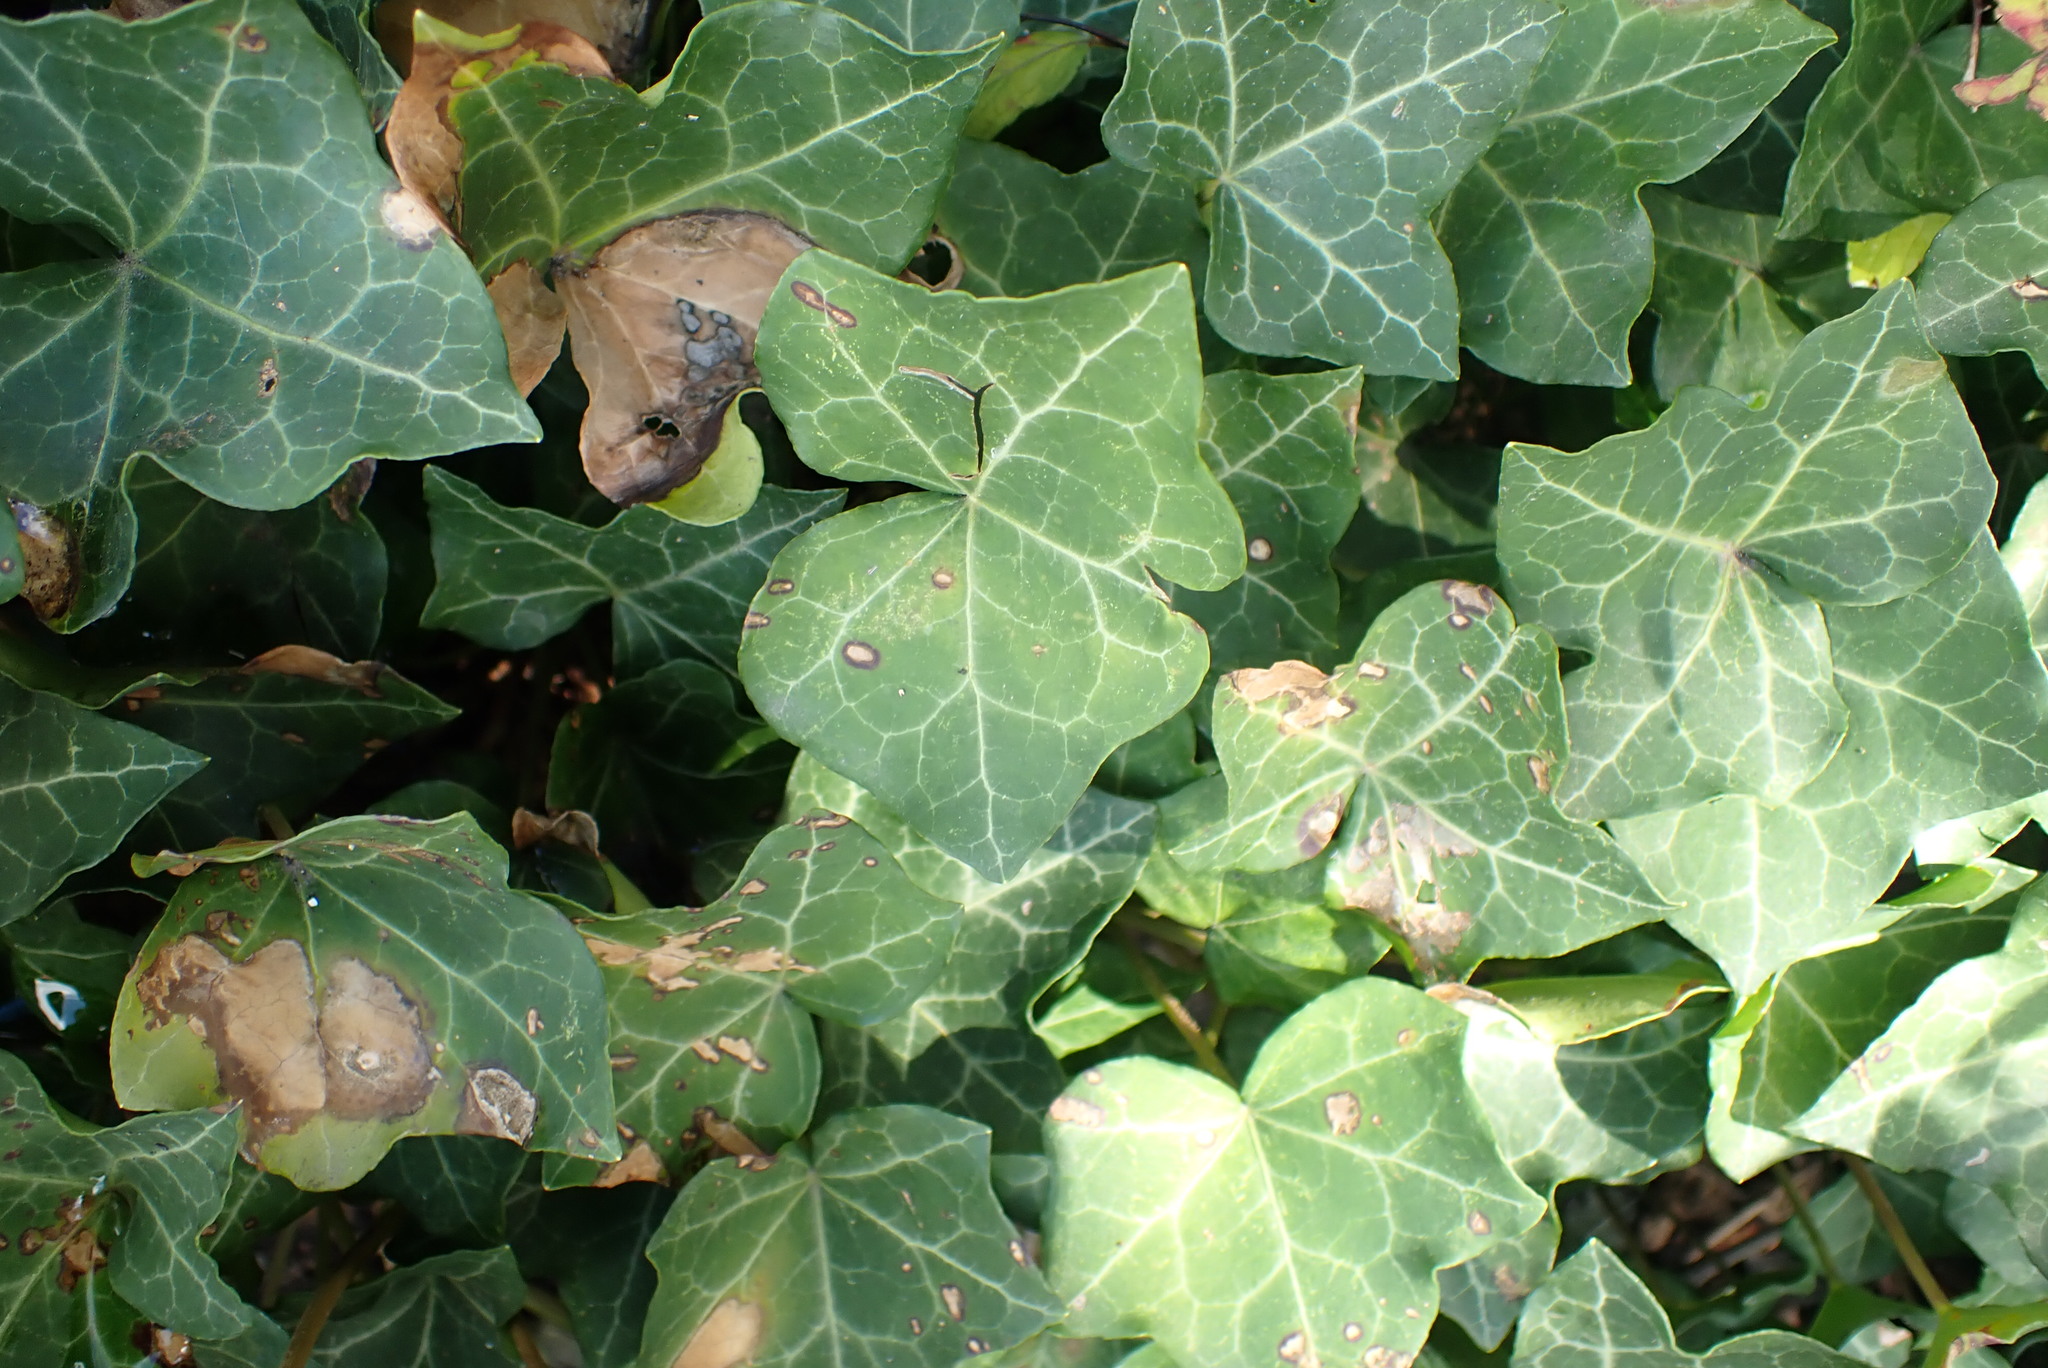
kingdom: Plantae
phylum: Tracheophyta
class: Magnoliopsida
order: Apiales
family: Araliaceae
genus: Hedera
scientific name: Hedera helix
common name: Ivy
